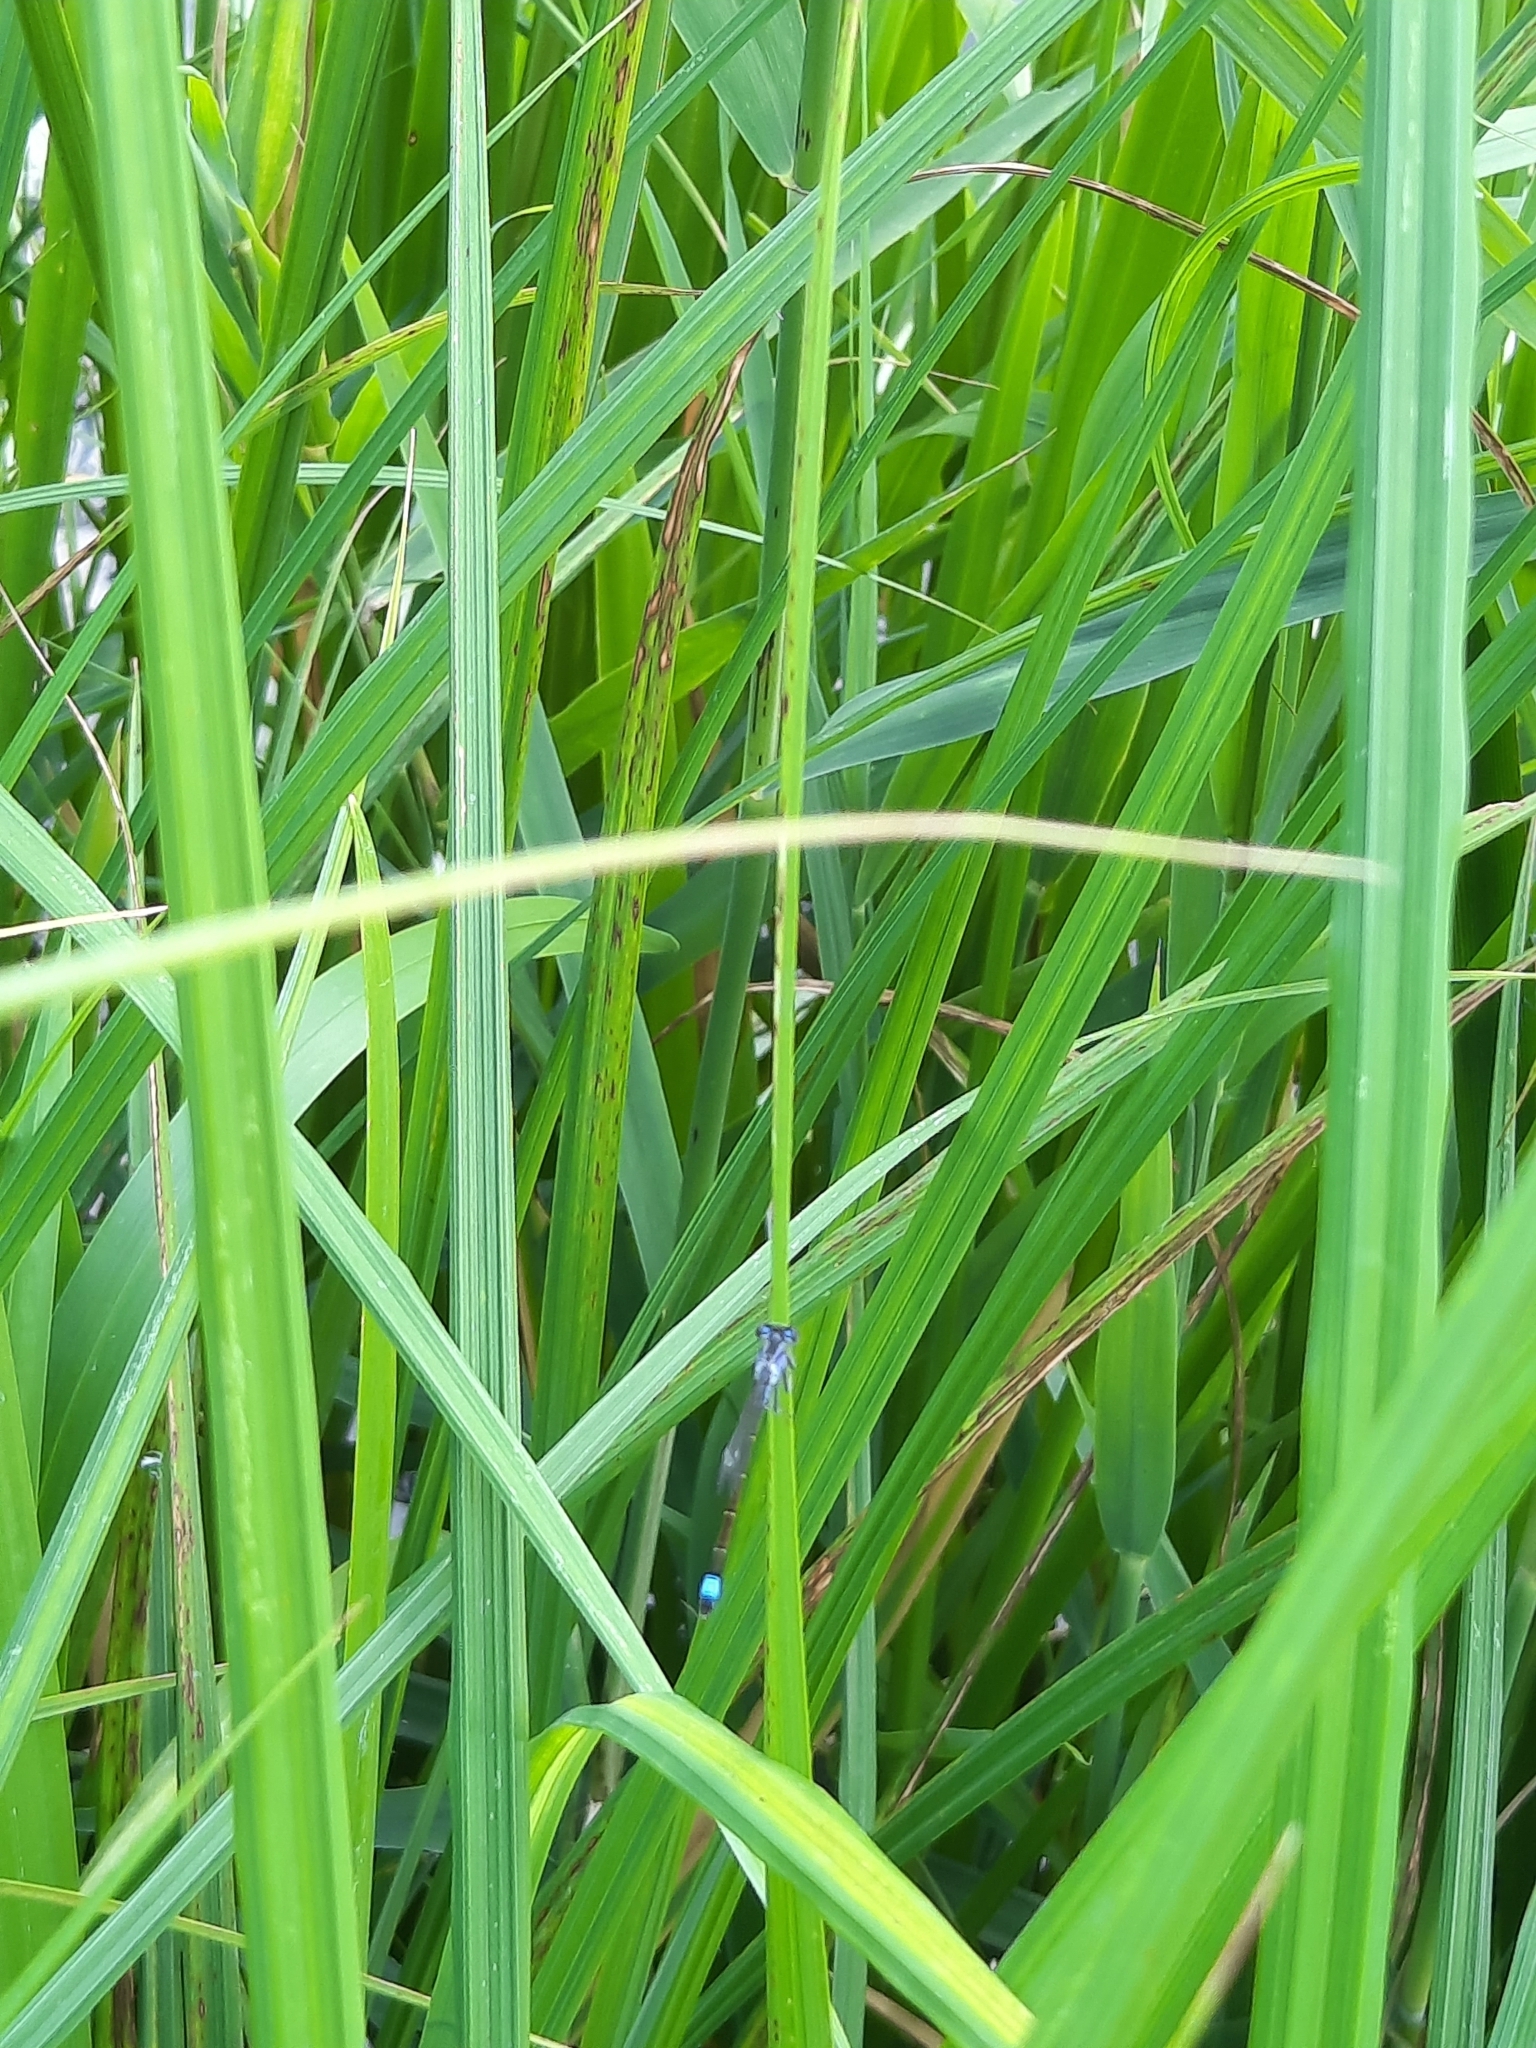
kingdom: Animalia
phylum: Arthropoda
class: Insecta
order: Odonata
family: Coenagrionidae
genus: Ischnura
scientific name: Ischnura elegans
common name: Blue-tailed damselfly
